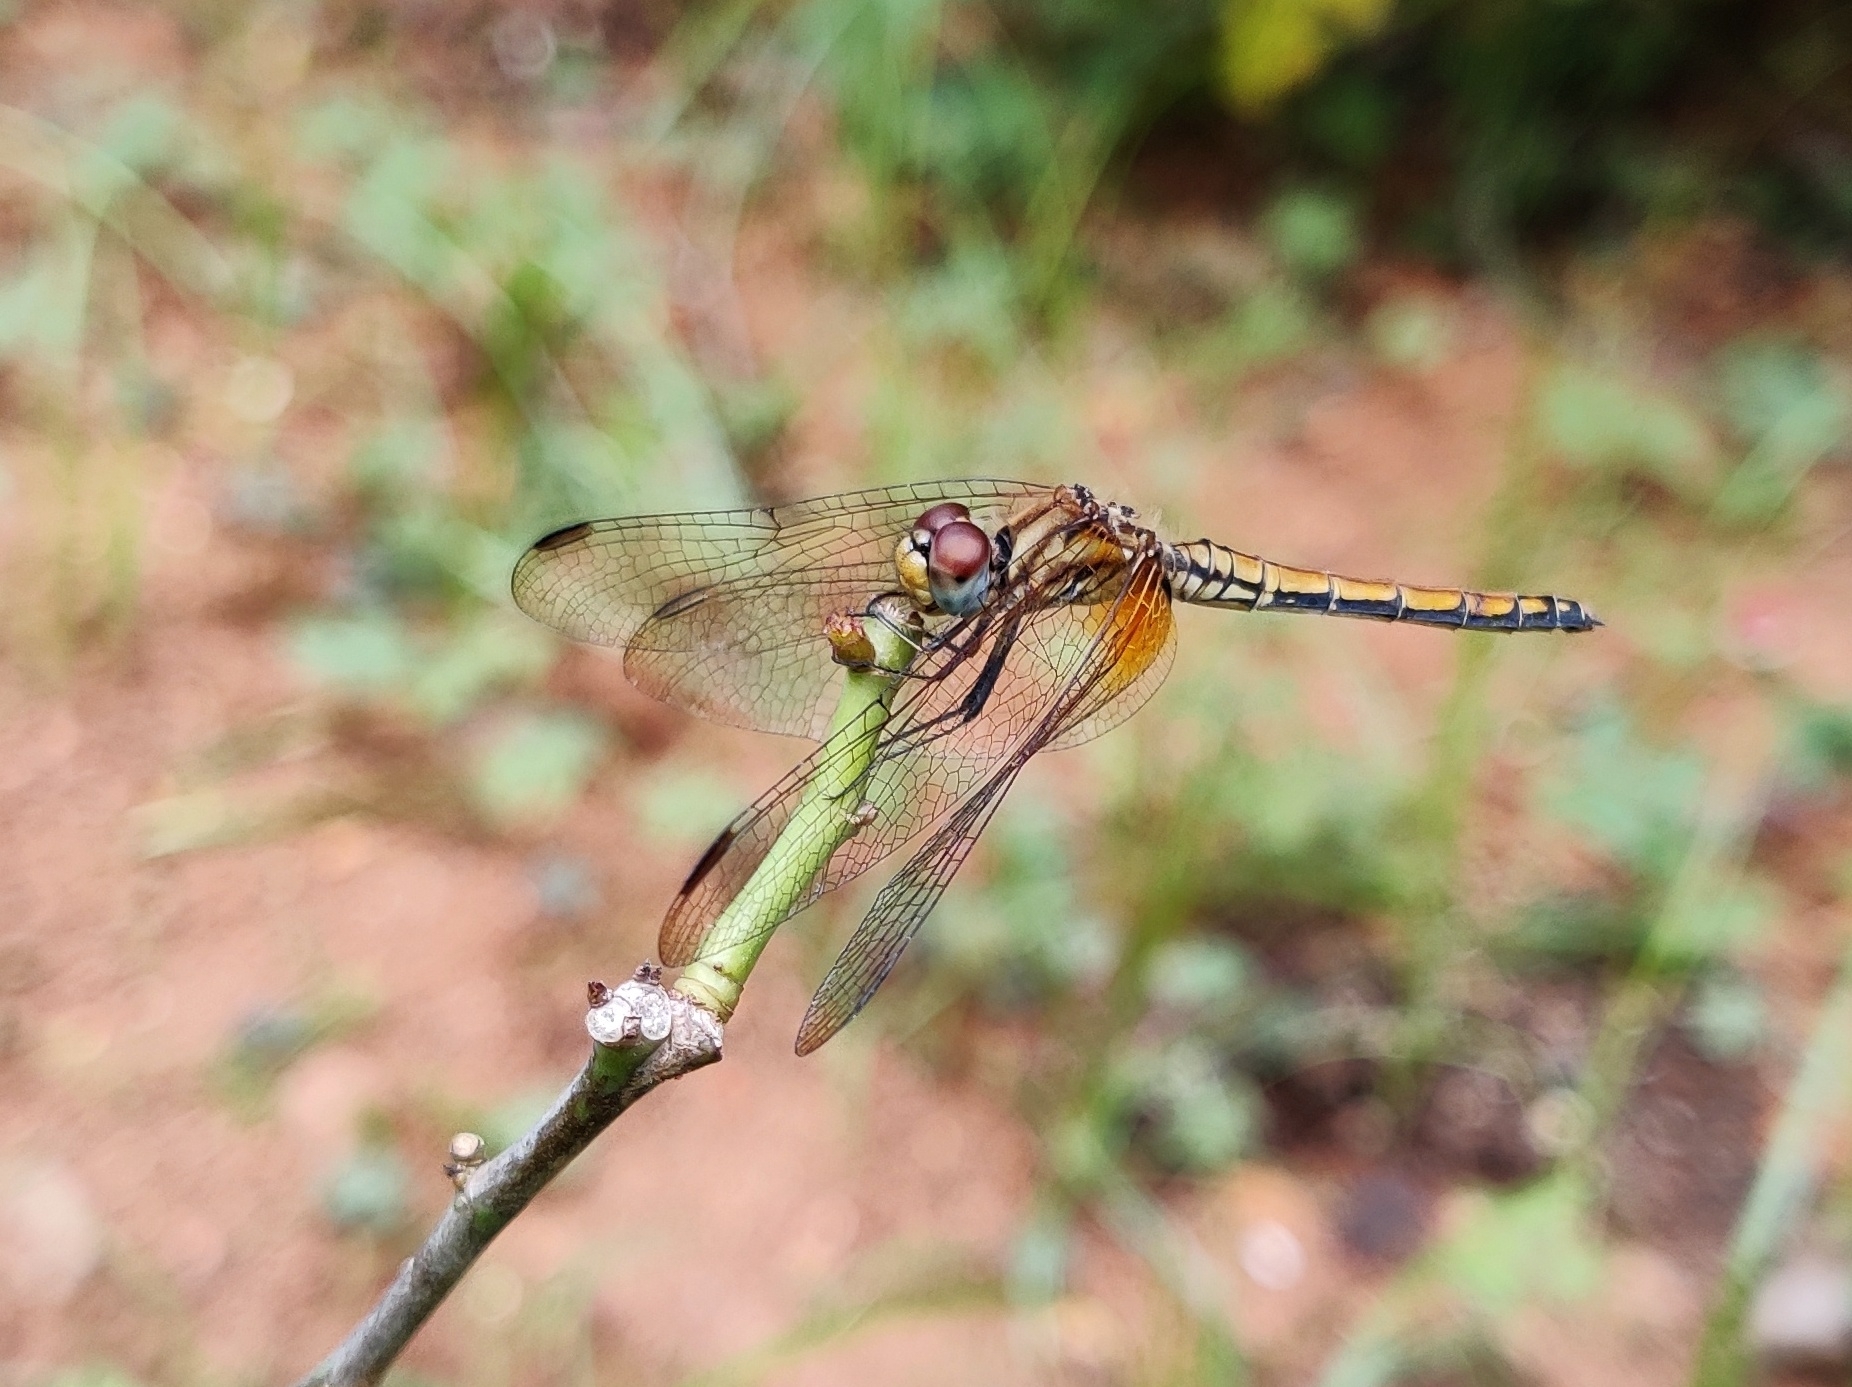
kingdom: Animalia
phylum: Arthropoda
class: Insecta
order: Odonata
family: Libellulidae
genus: Trithemis
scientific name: Trithemis aurora
